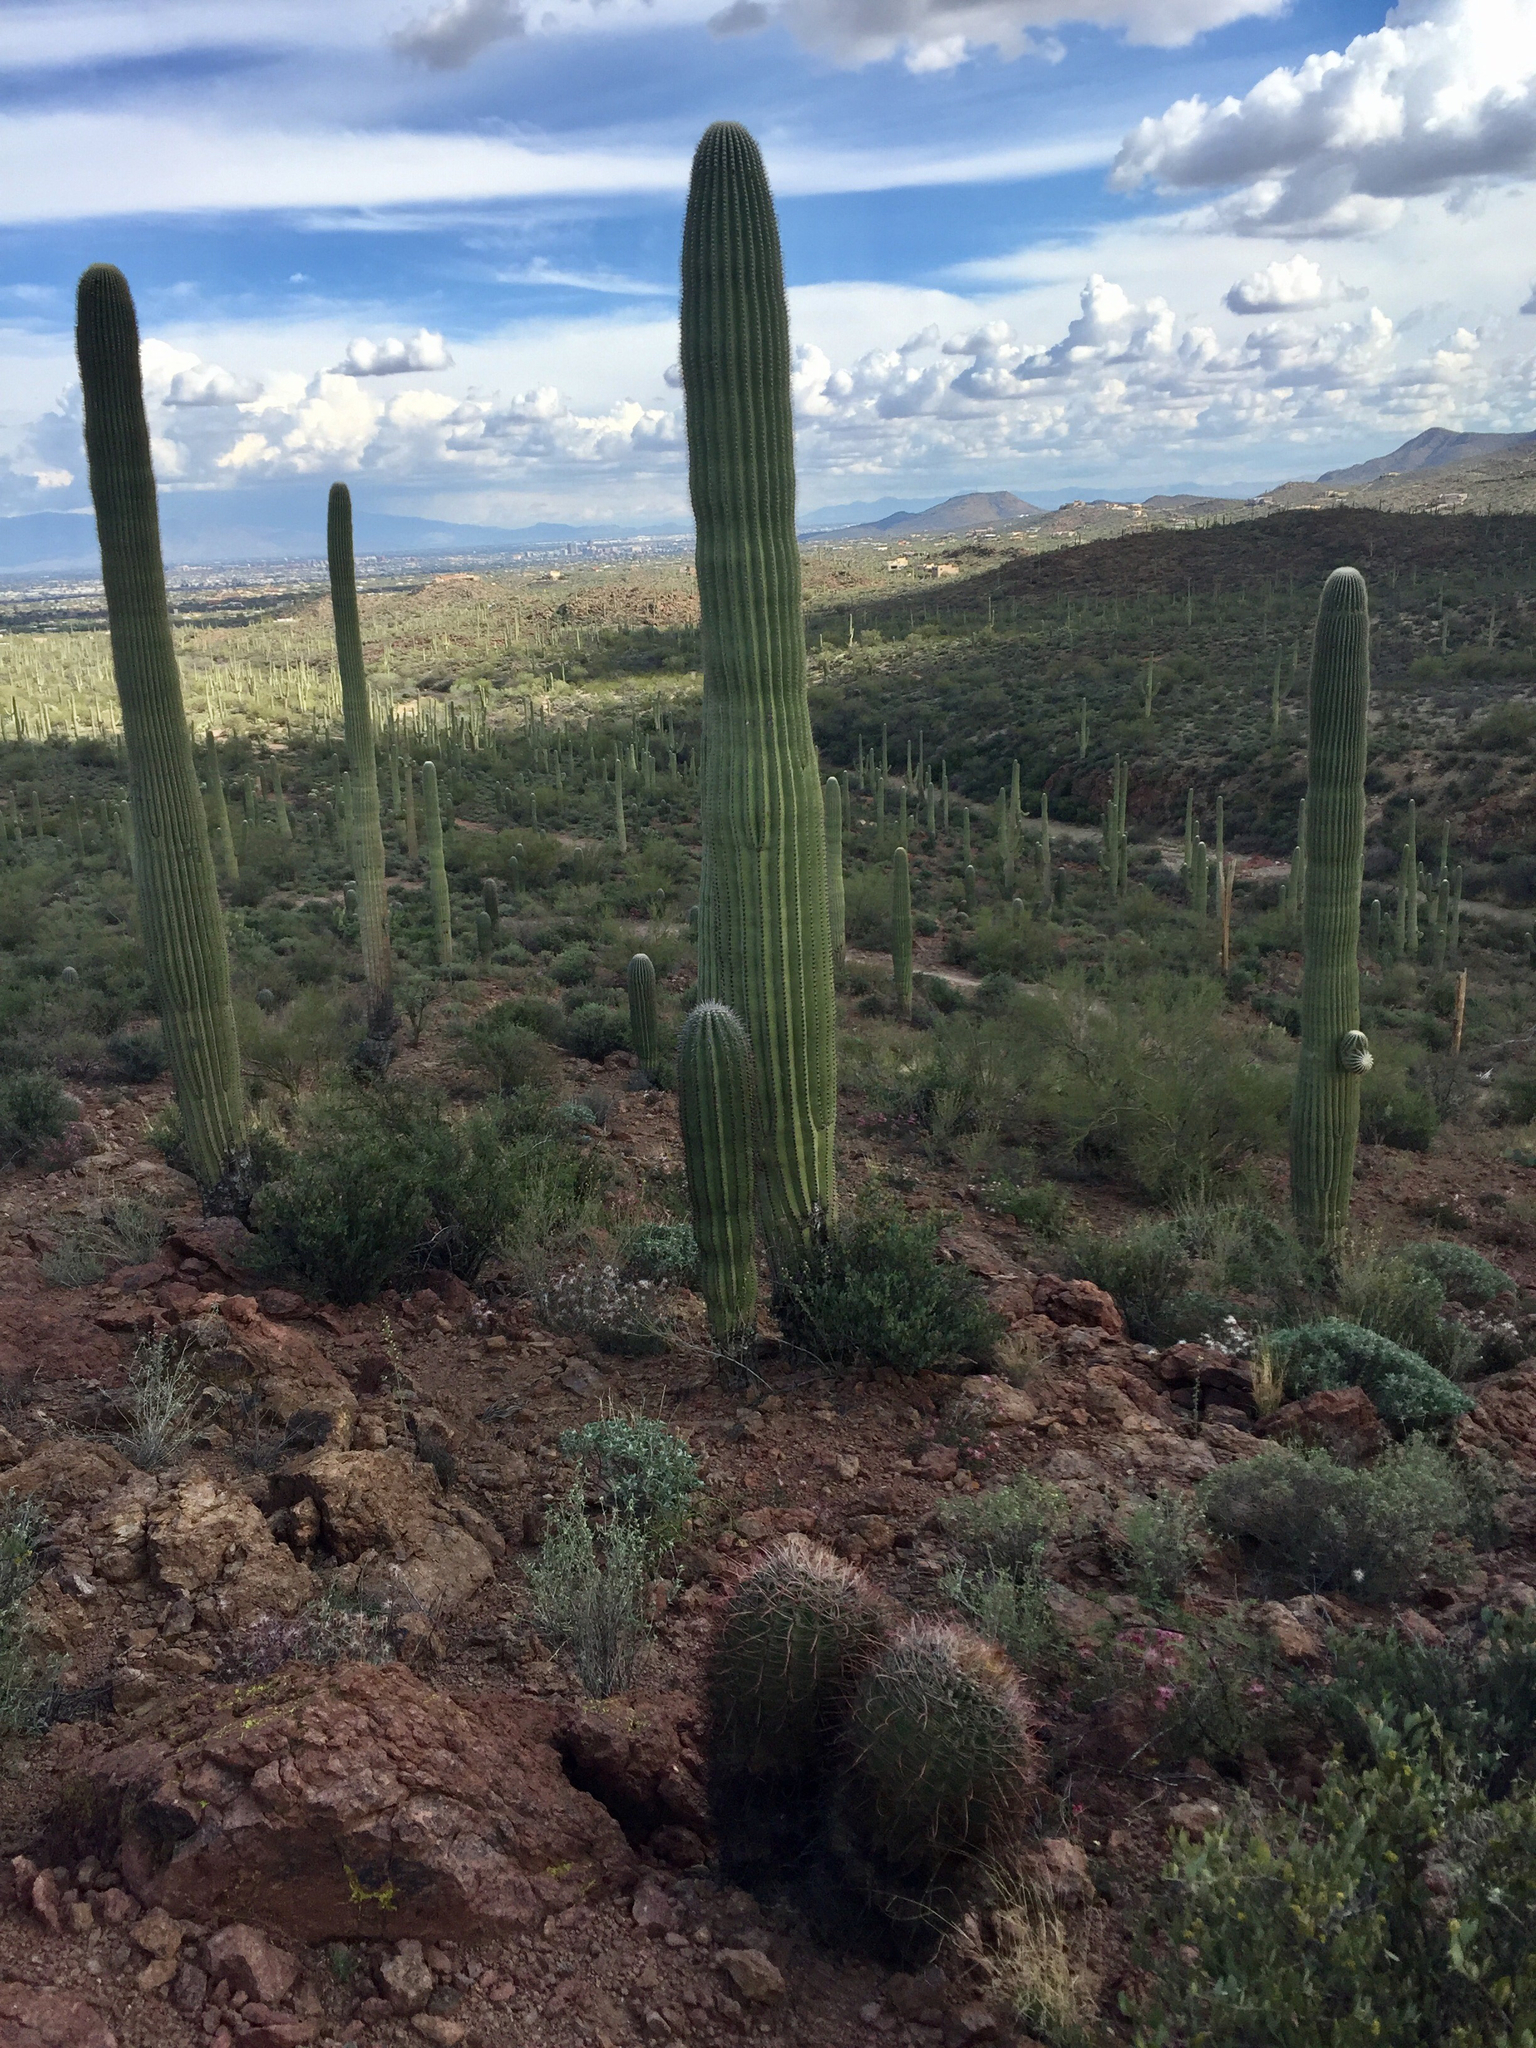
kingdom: Plantae
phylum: Tracheophyta
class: Magnoliopsida
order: Caryophyllales
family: Cactaceae
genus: Carnegiea
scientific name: Carnegiea gigantea
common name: Saguaro
